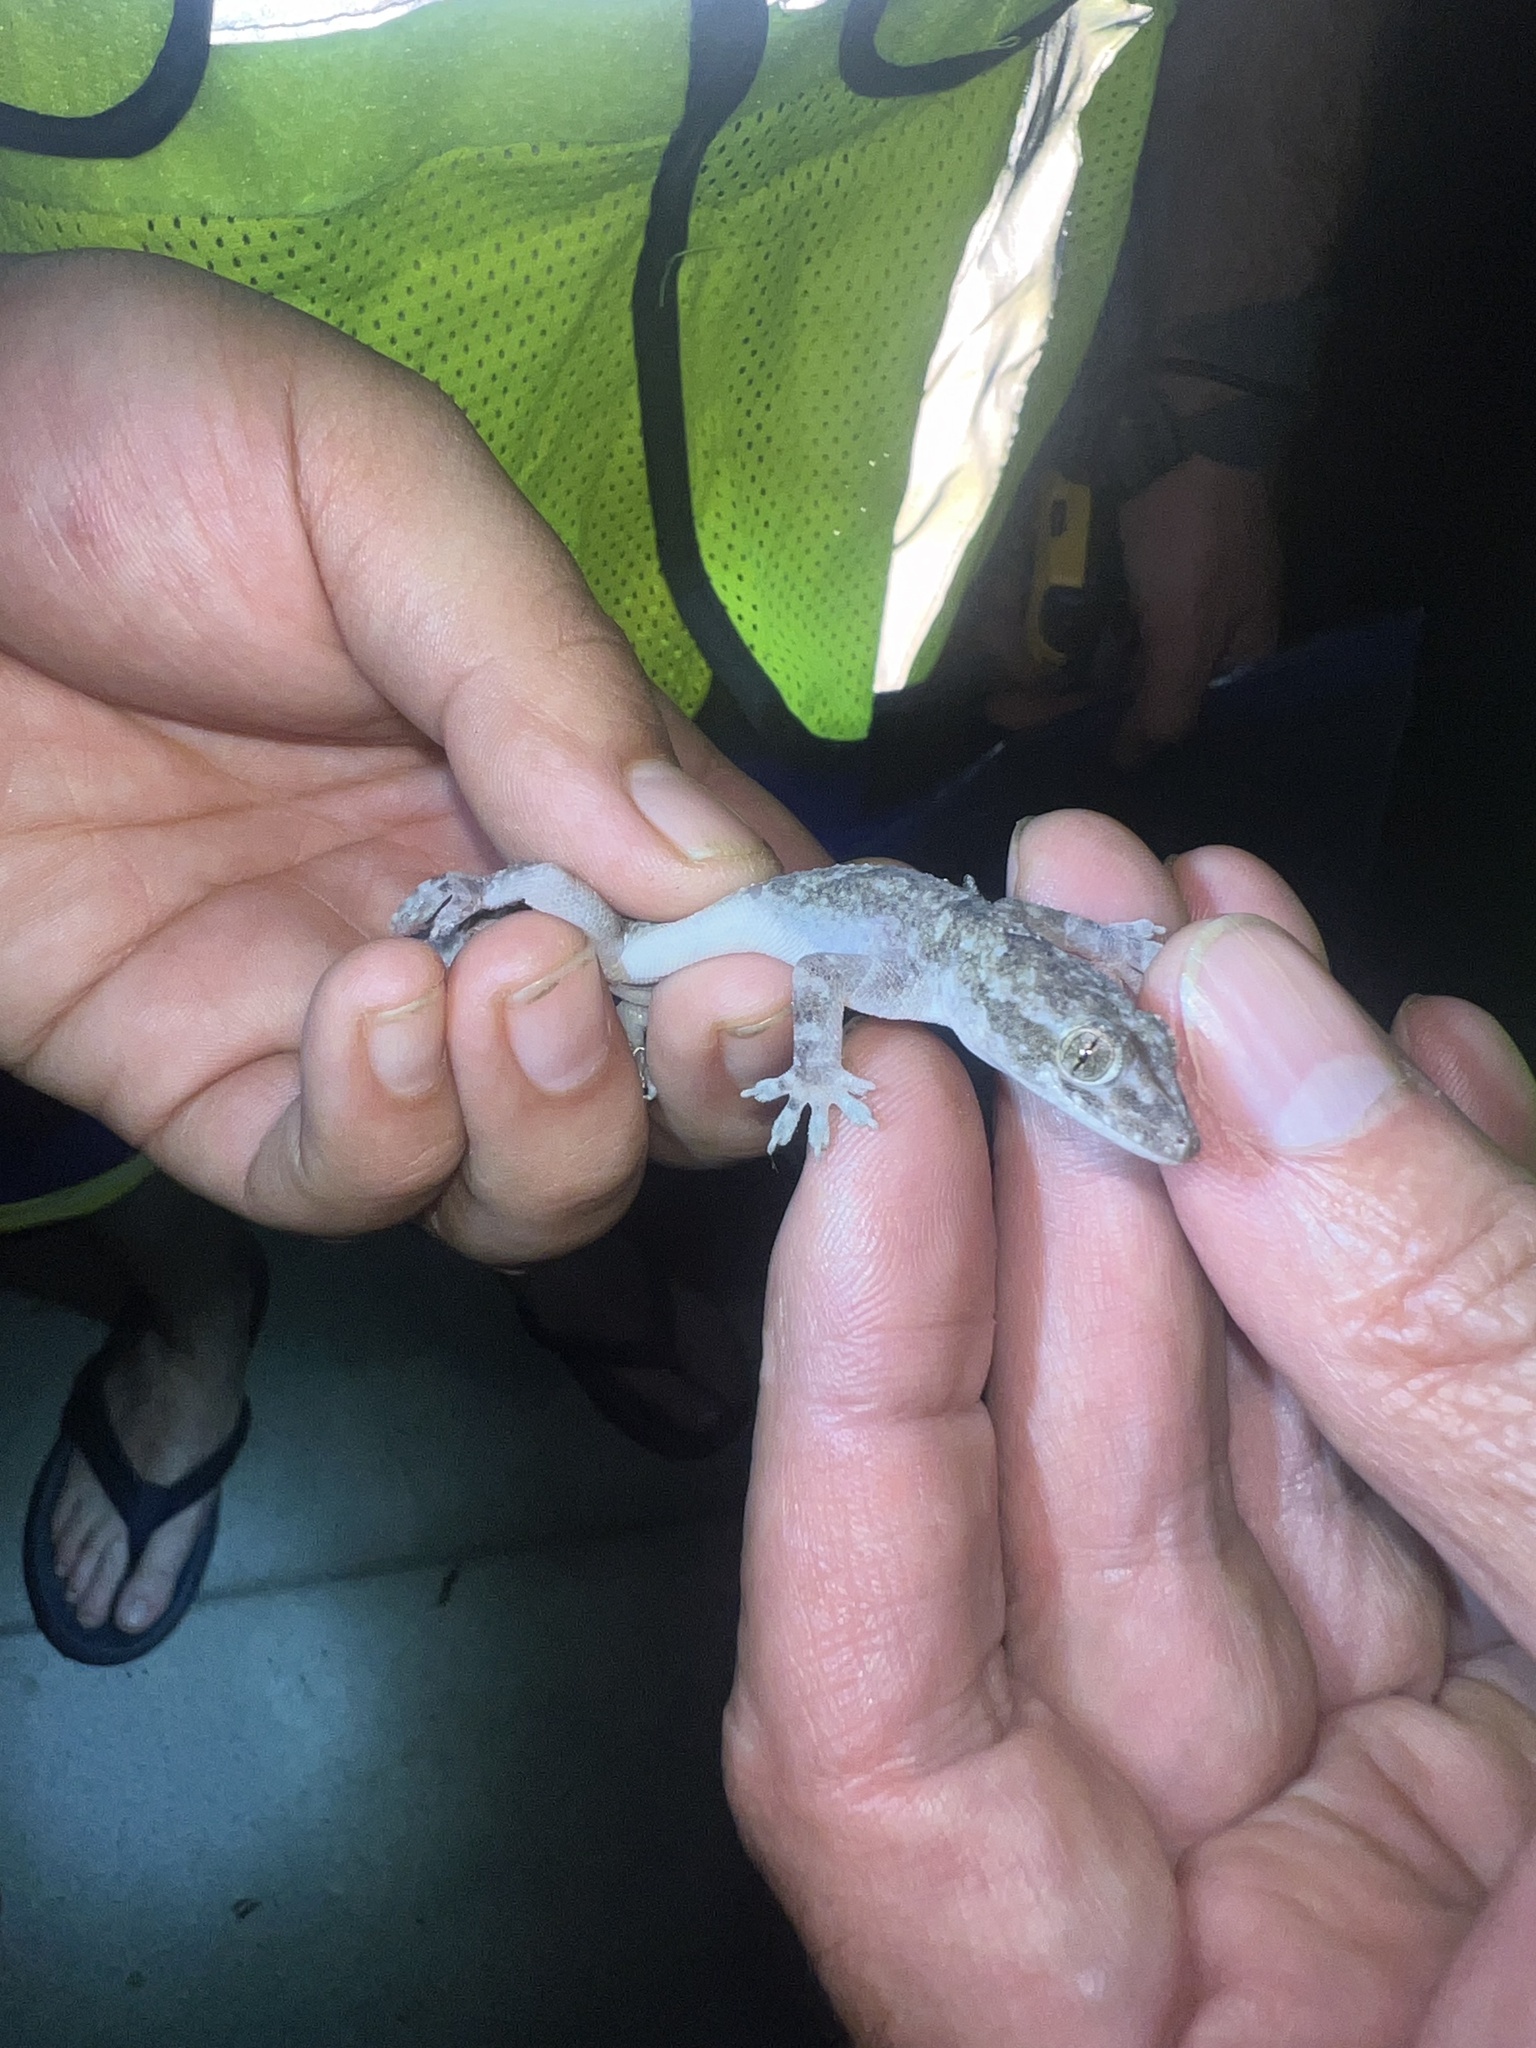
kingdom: Animalia
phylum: Chordata
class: Squamata
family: Gekkonidae
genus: Hemidactylus
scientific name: Hemidactylus mabouia
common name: House gecko
